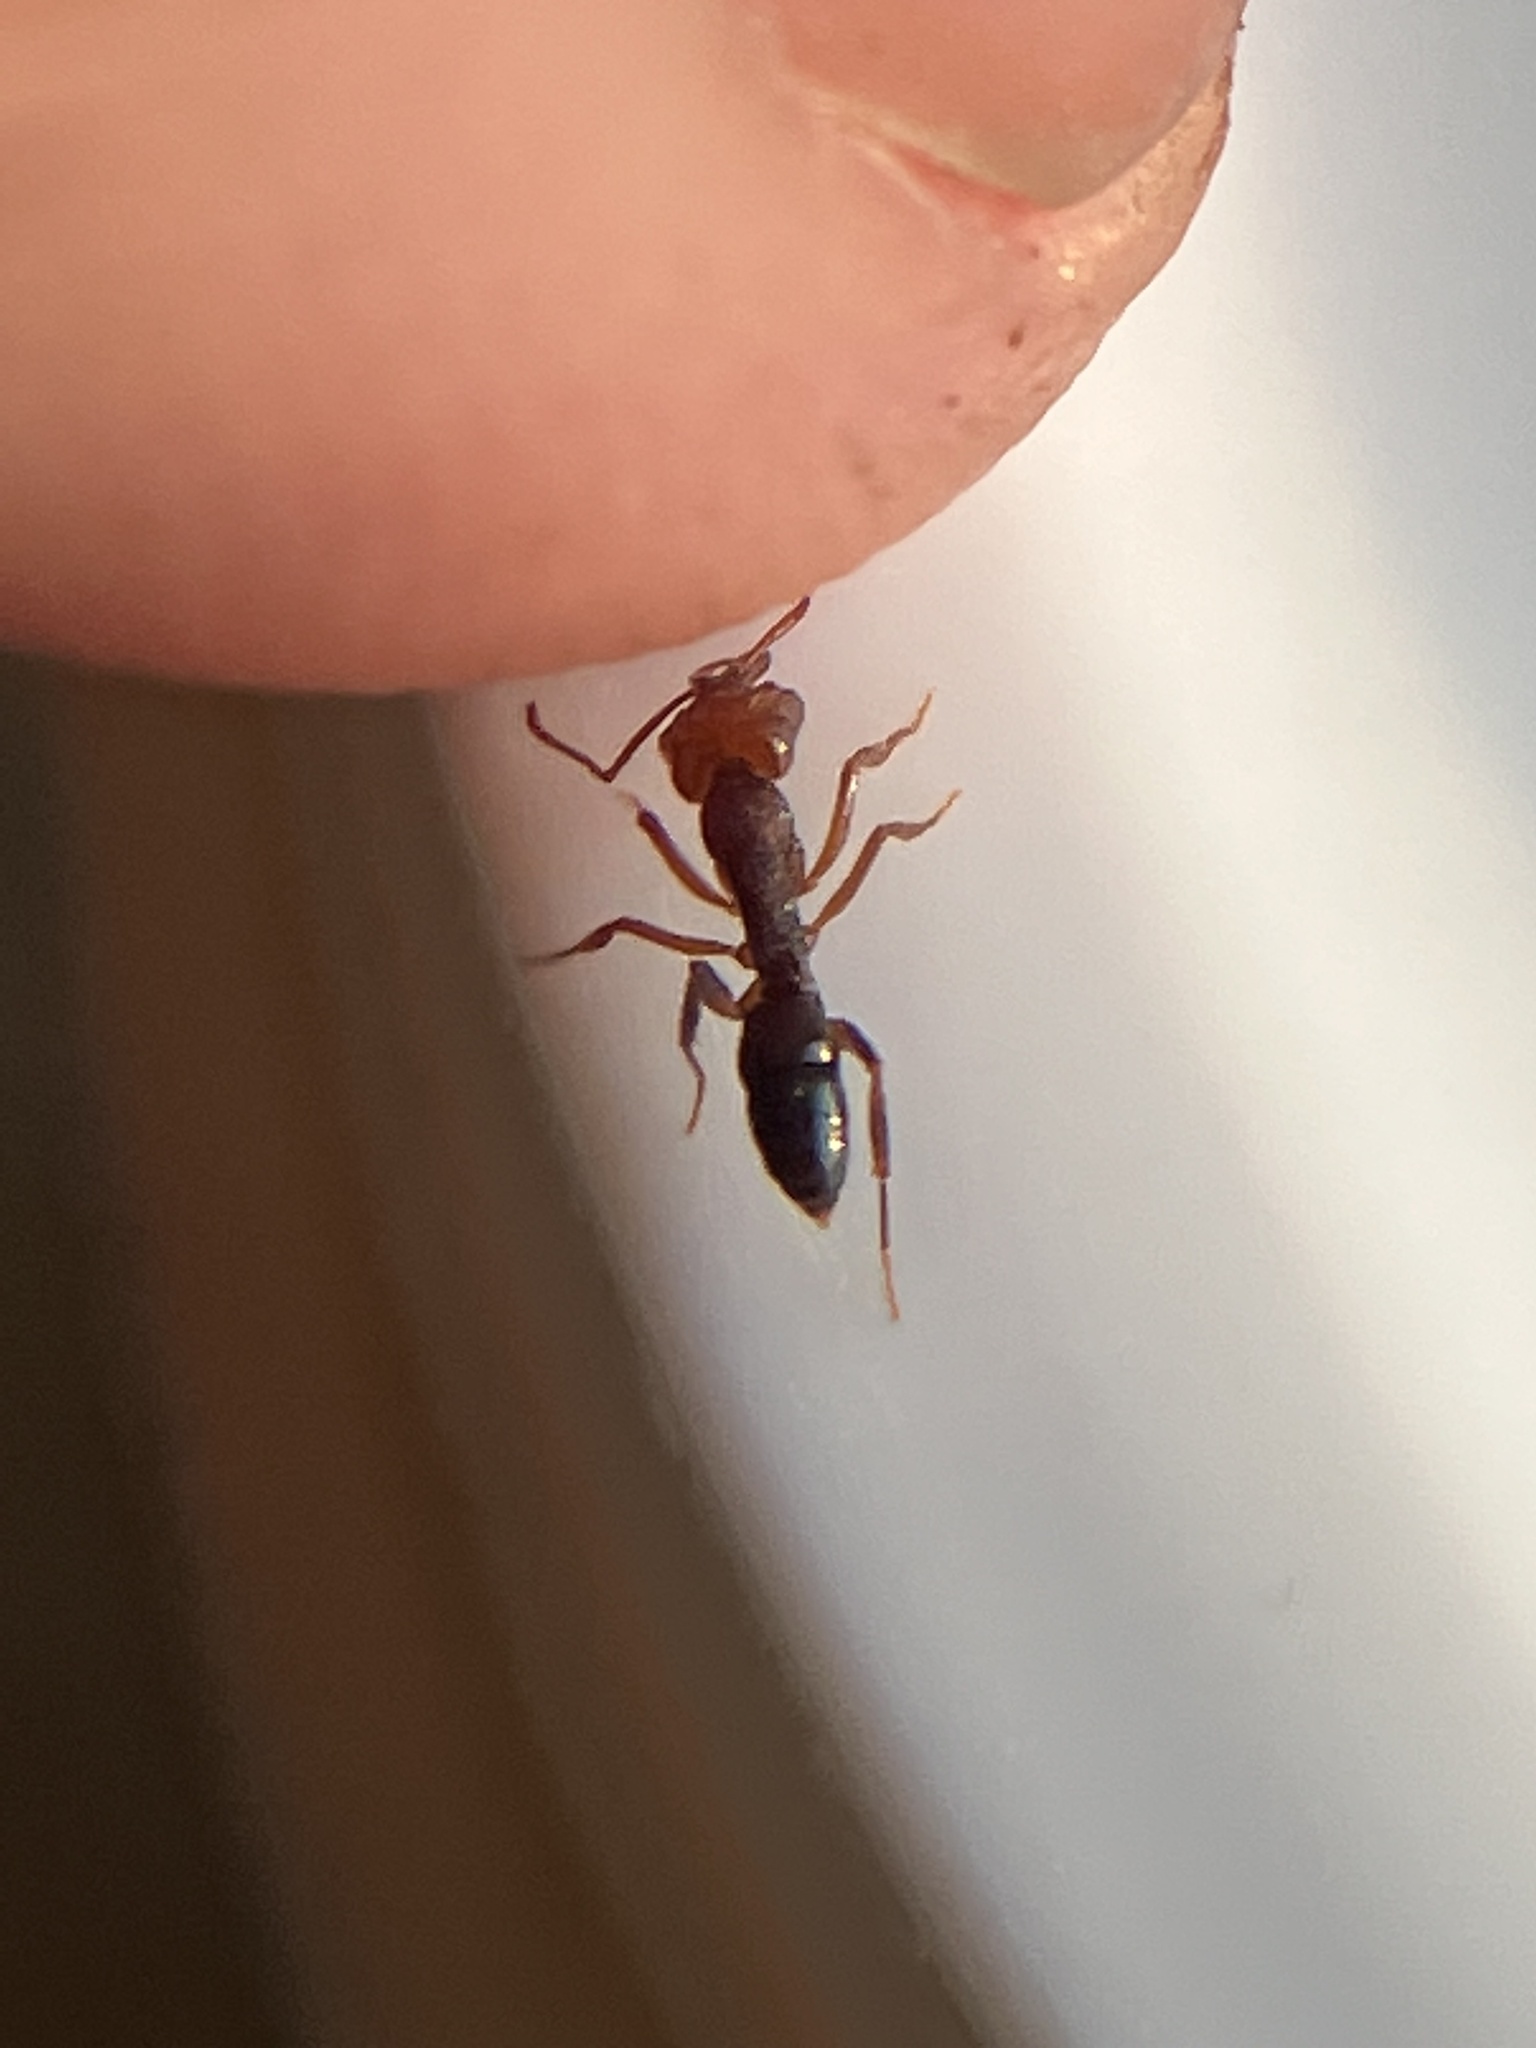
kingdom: Animalia
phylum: Arthropoda
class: Insecta
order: Hymenoptera
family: Formicidae
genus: Anochetus
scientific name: Anochetus graeffei
